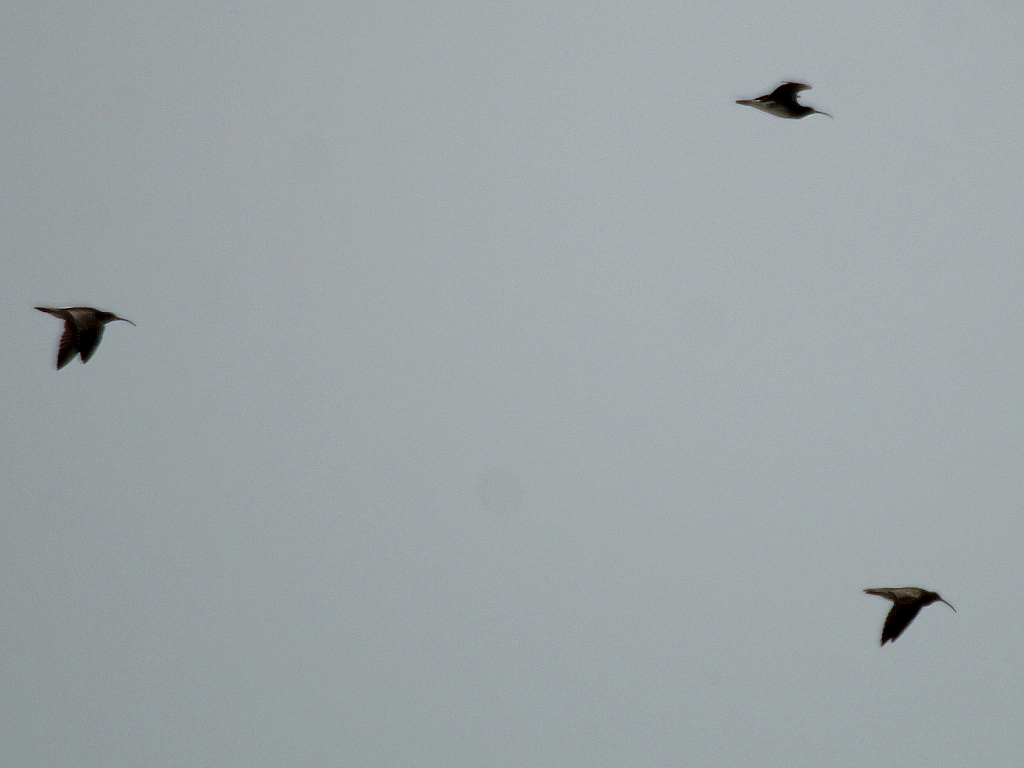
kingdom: Animalia
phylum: Chordata
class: Aves
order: Charadriiformes
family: Scolopacidae
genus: Numenius
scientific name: Numenius phaeopus
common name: Whimbrel
